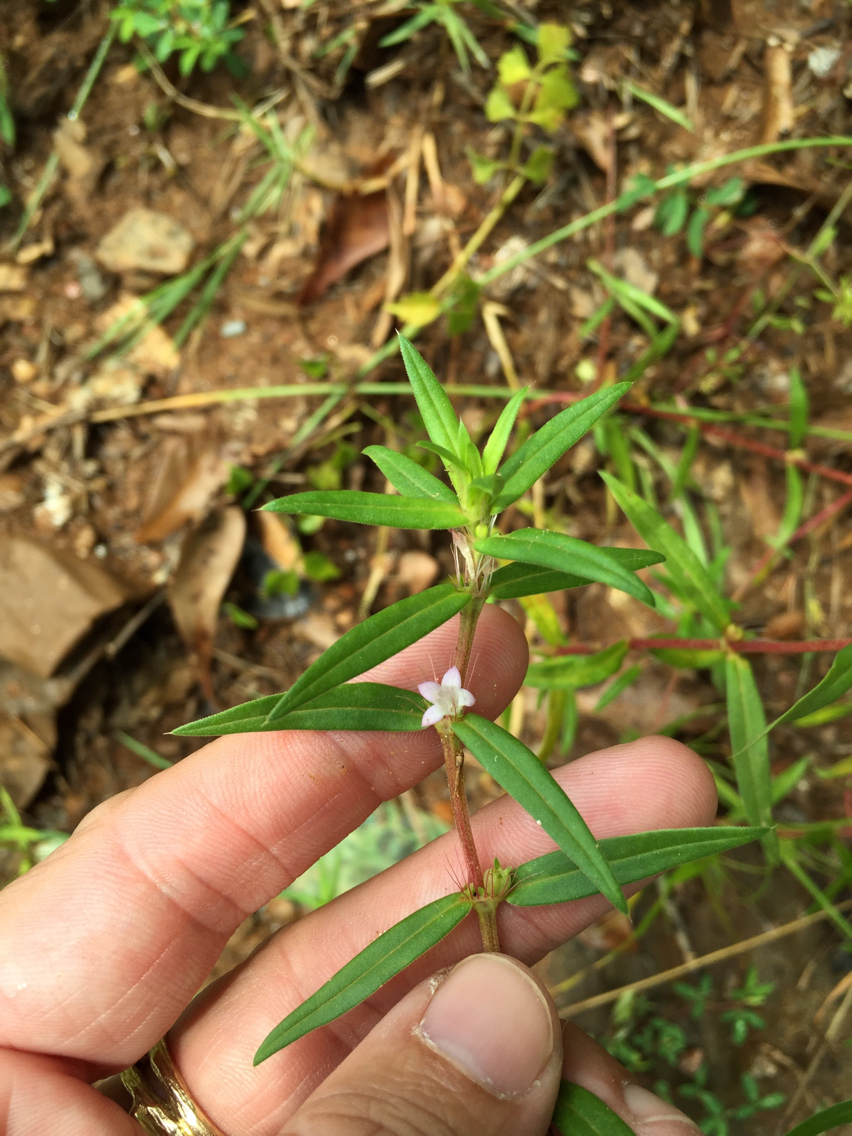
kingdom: Plantae
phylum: Tracheophyta
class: Magnoliopsida
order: Gentianales
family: Rubiaceae
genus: Hexasepalum
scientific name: Hexasepalum teres
